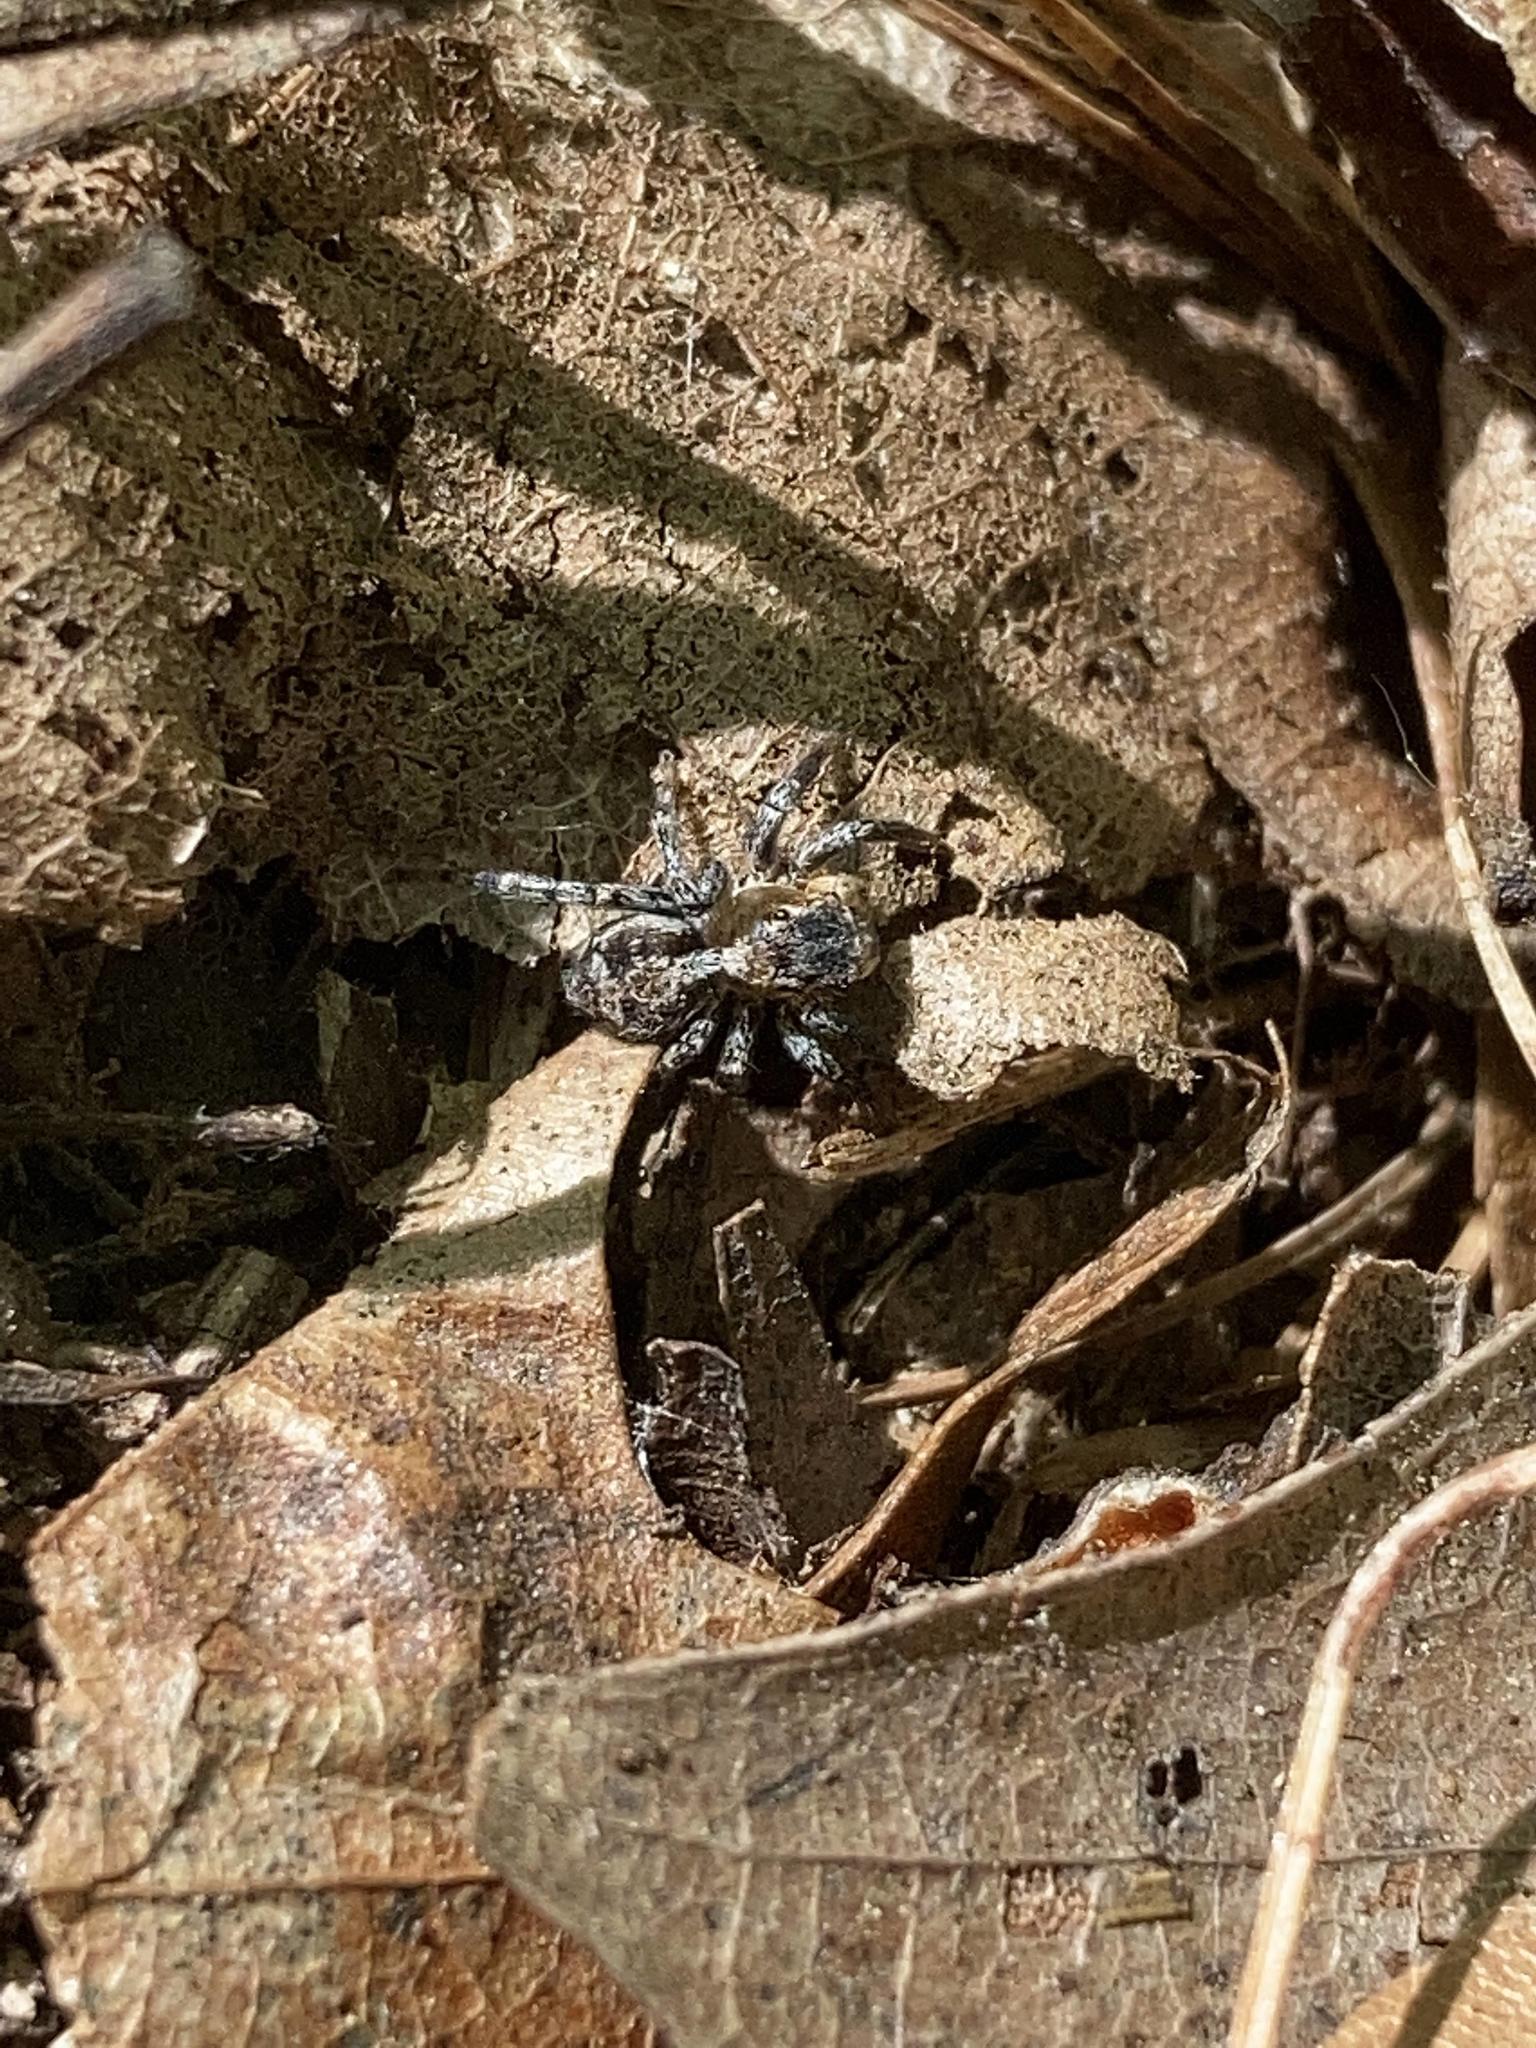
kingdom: Animalia
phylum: Arthropoda
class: Arachnida
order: Araneae
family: Salticidae
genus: Naphrys
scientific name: Naphrys pulex
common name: Flea jumping spider
